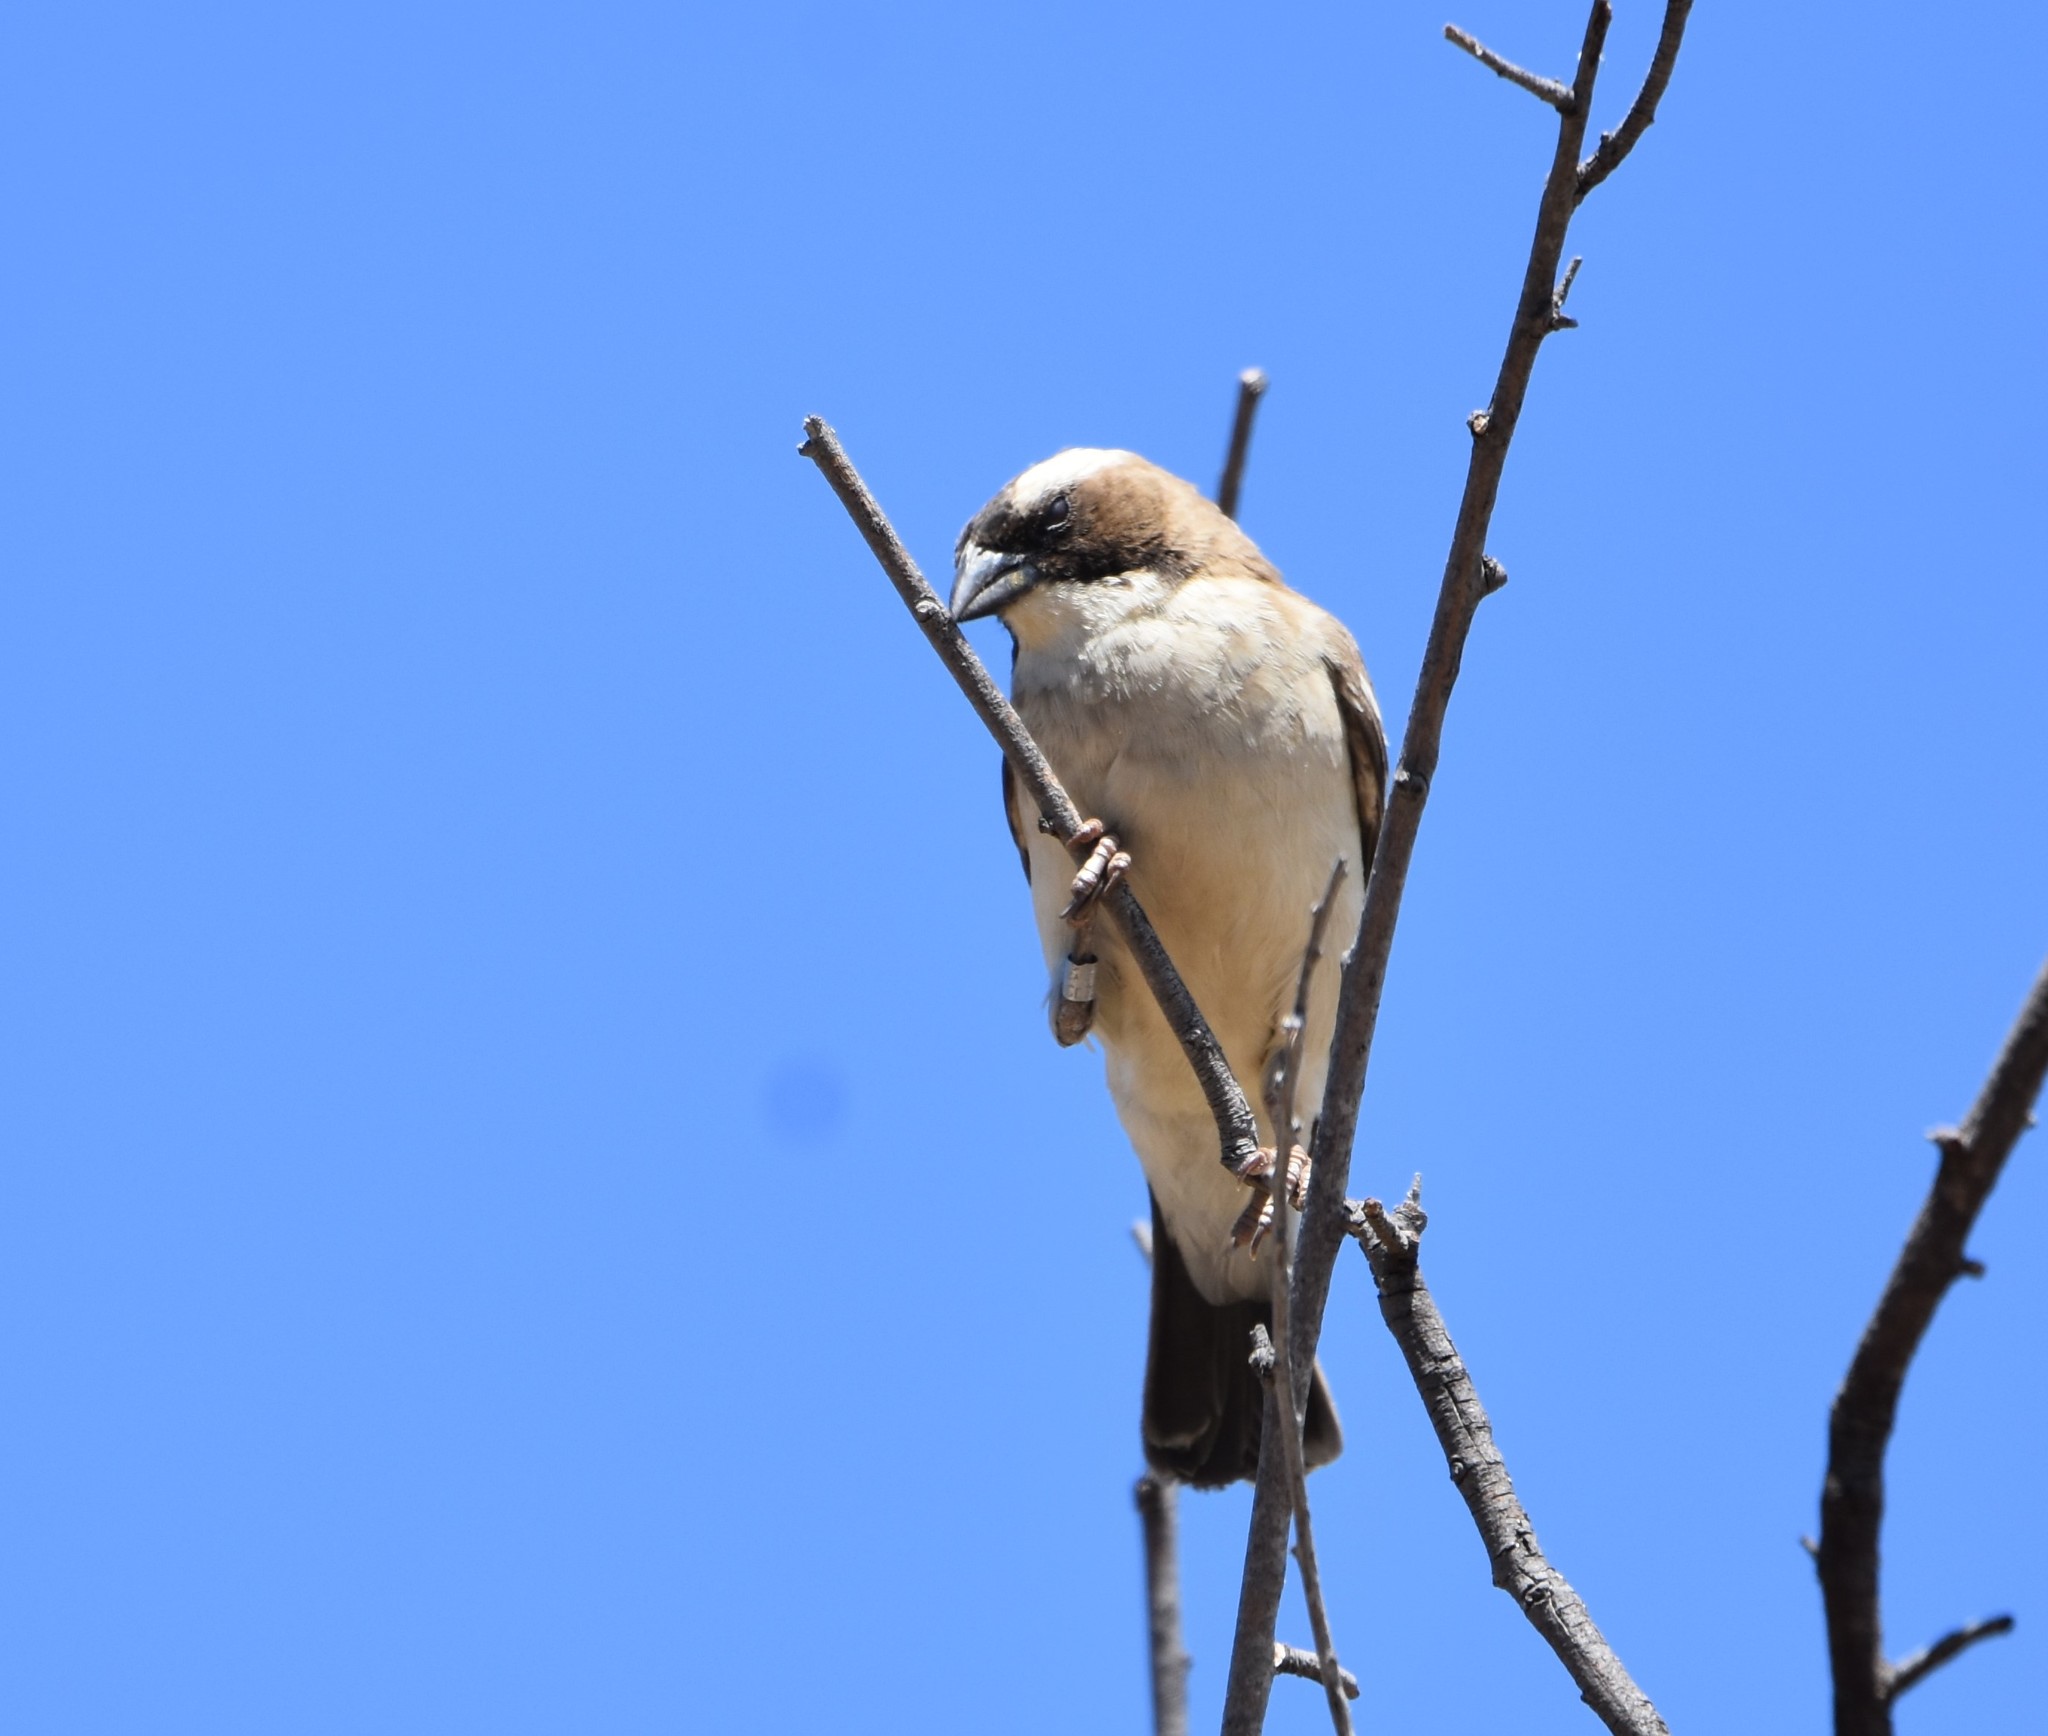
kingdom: Animalia
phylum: Chordata
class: Aves
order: Passeriformes
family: Passeridae
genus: Plocepasser
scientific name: Plocepasser mahali
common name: White-browed sparrow-weaver
